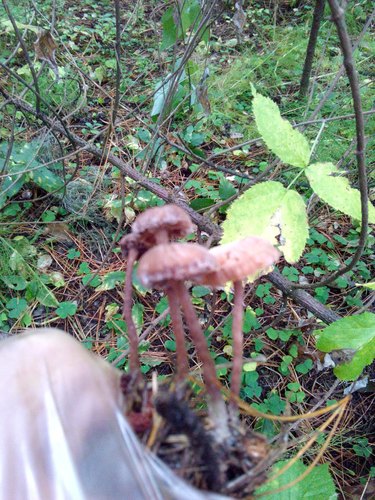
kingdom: Fungi
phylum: Basidiomycota
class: Agaricomycetes
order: Agaricales
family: Hydnangiaceae
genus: Laccaria
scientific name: Laccaria
